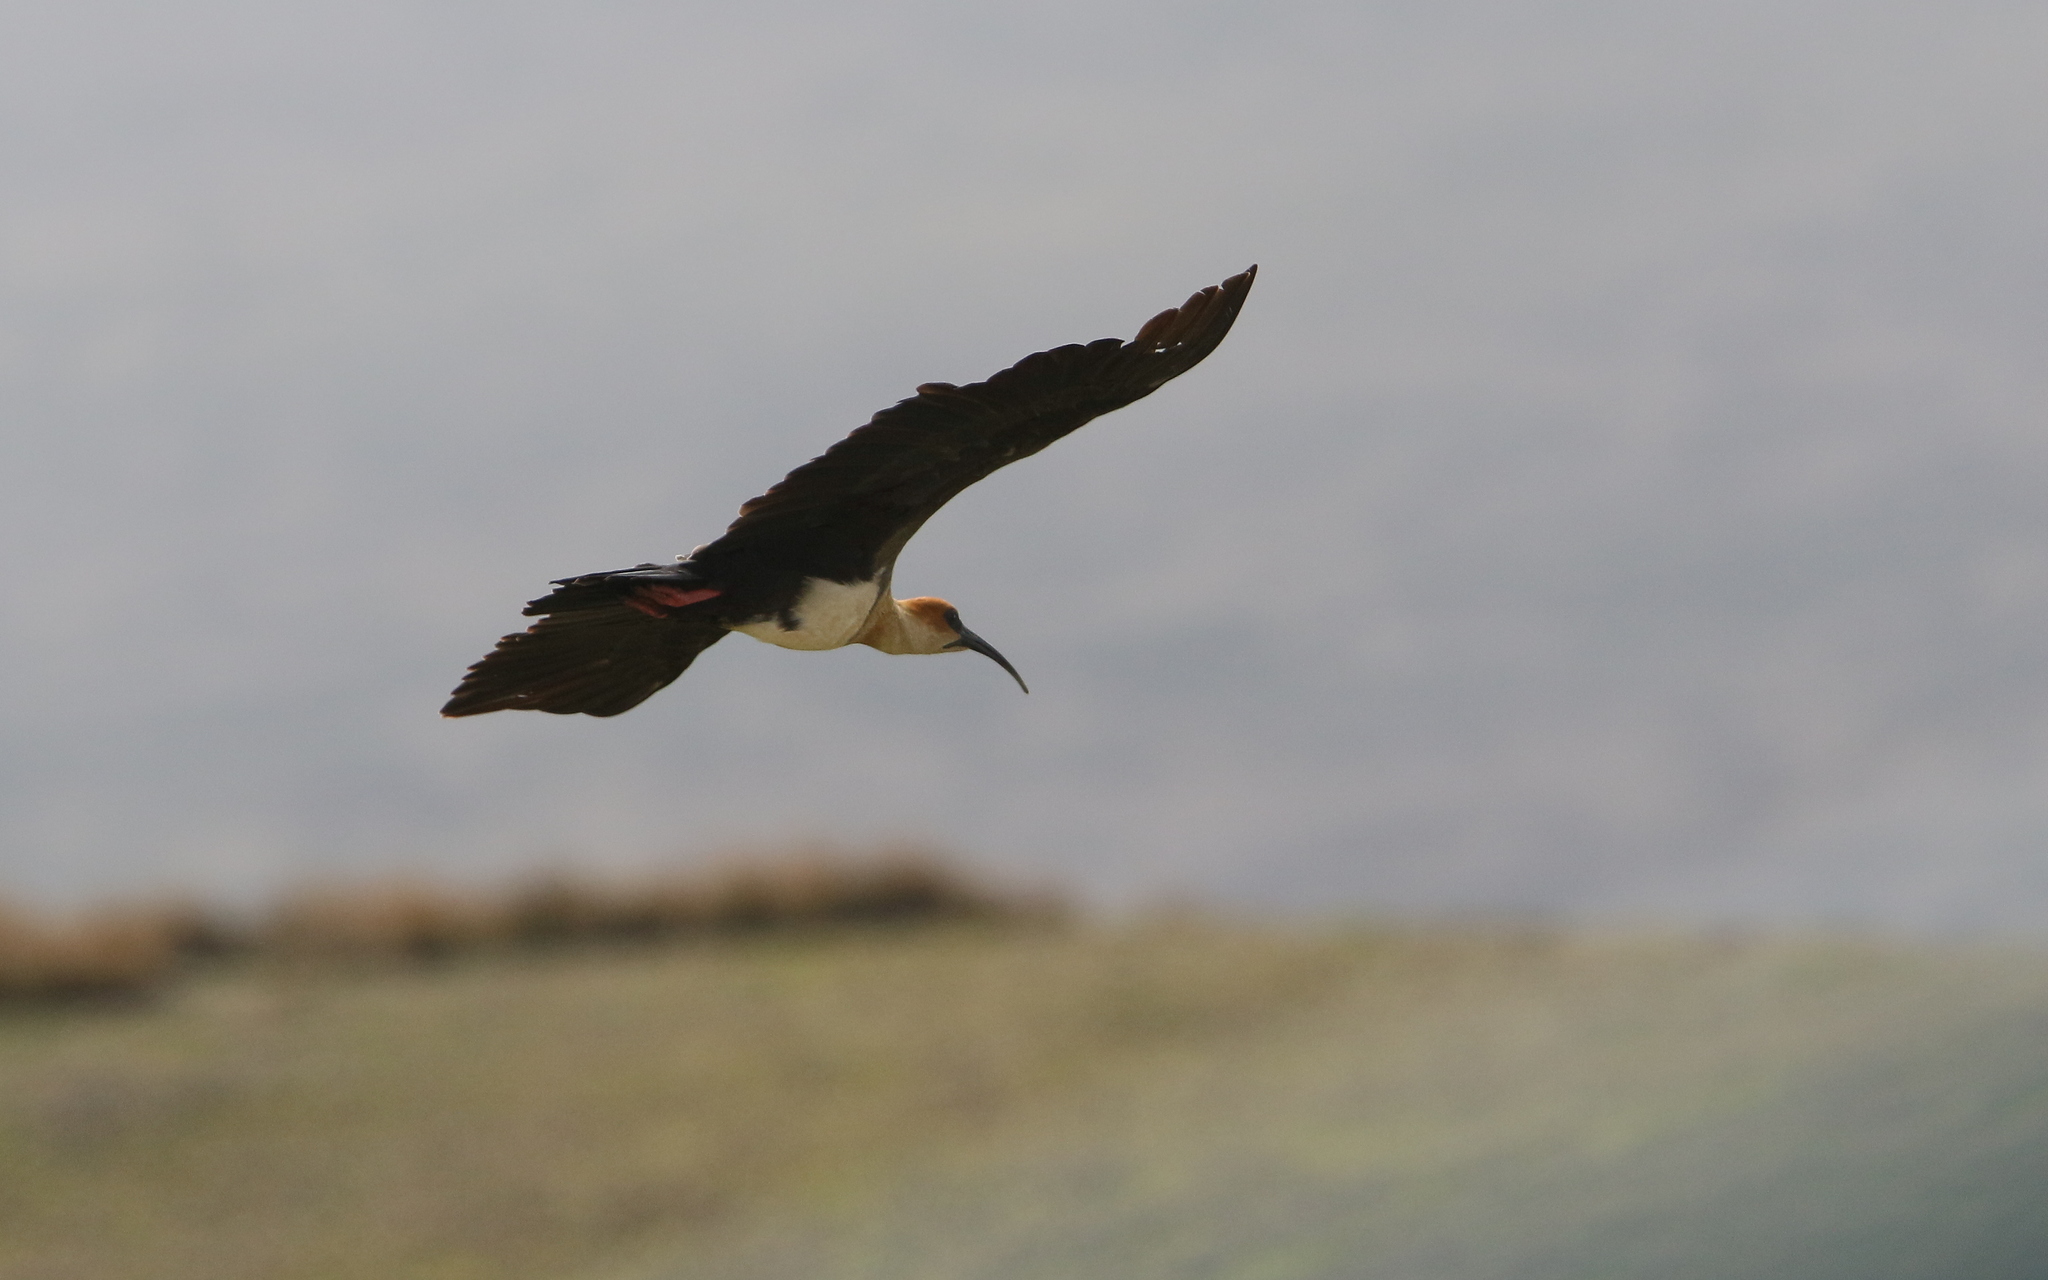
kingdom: Animalia
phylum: Chordata
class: Aves
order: Pelecaniformes
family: Threskiornithidae
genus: Theristicus
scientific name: Theristicus melanopis
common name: Black-faced ibis
